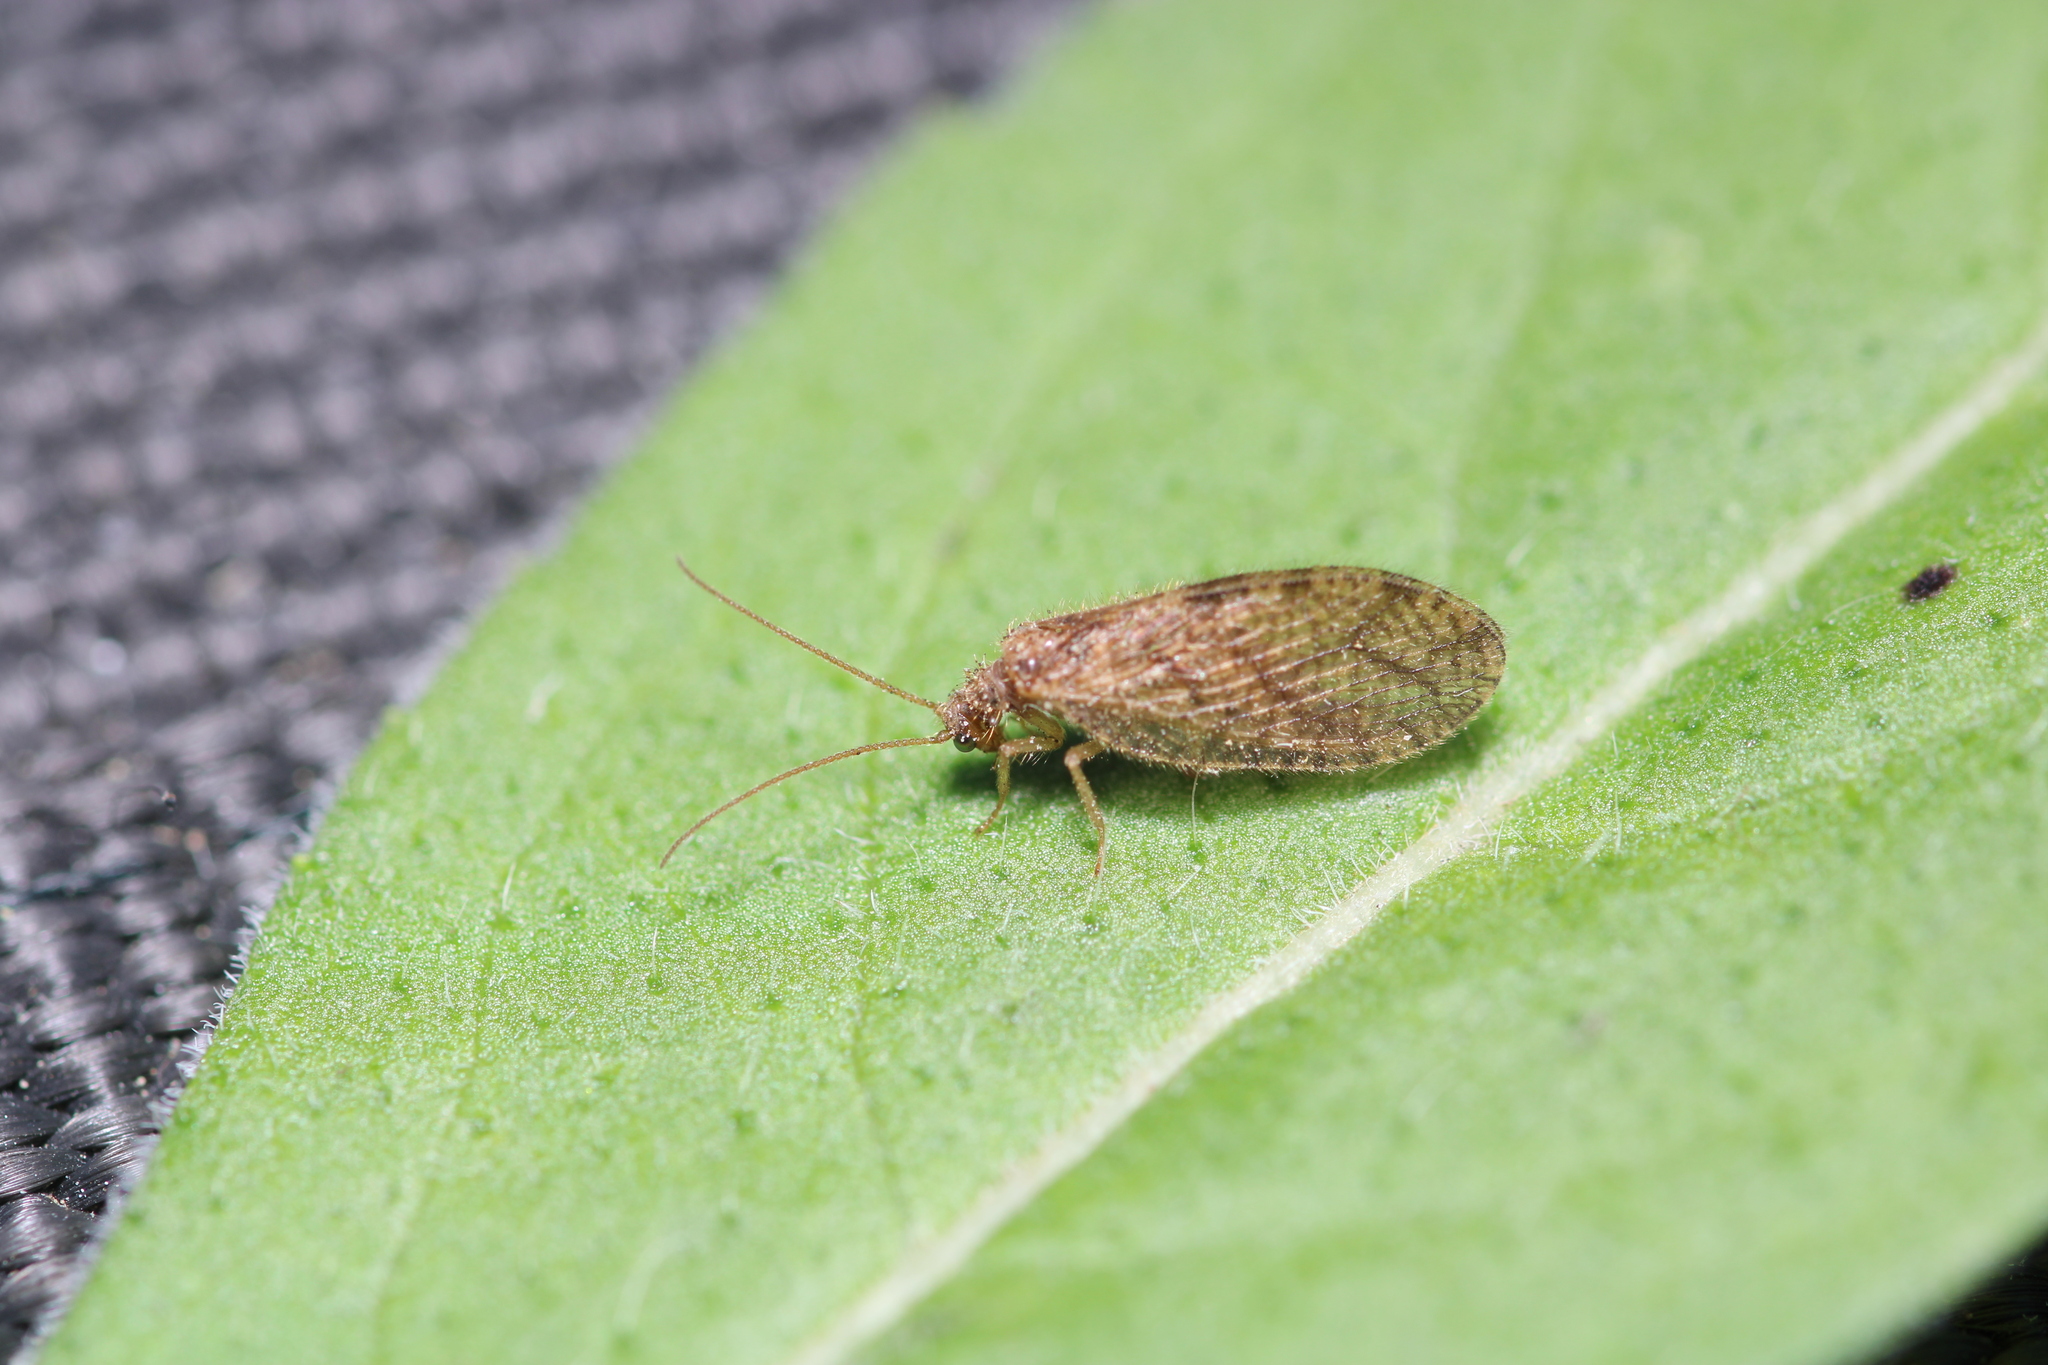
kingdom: Animalia
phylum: Arthropoda
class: Insecta
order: Neuroptera
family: Hemerobiidae
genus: Micromus
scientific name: Micromus angulatus
